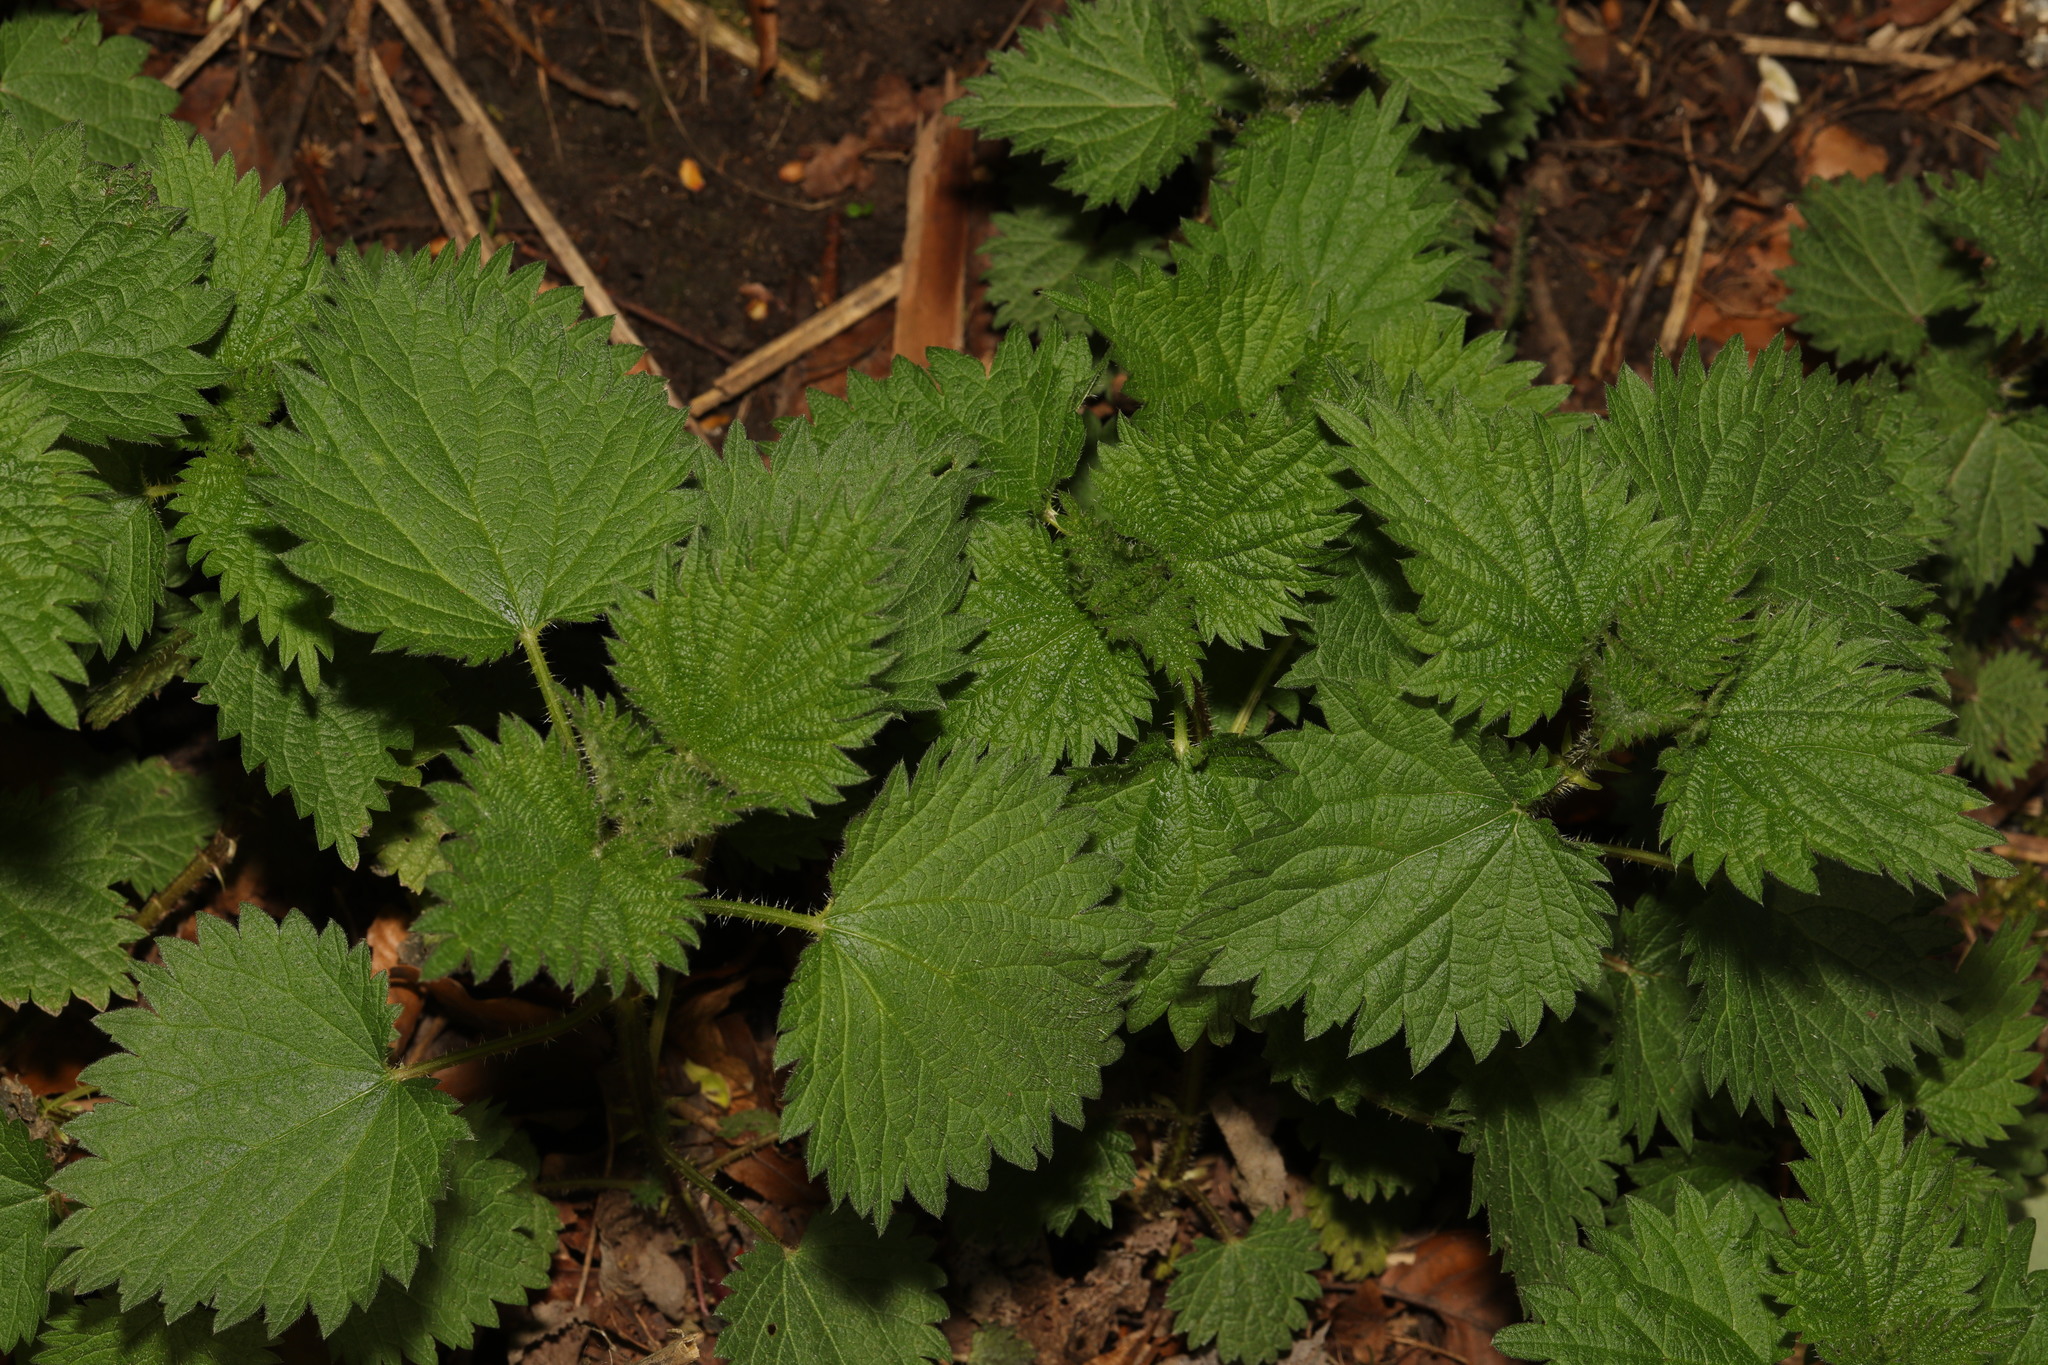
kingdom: Plantae
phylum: Tracheophyta
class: Magnoliopsida
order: Rosales
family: Urticaceae
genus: Urtica
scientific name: Urtica dioica
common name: Common nettle
